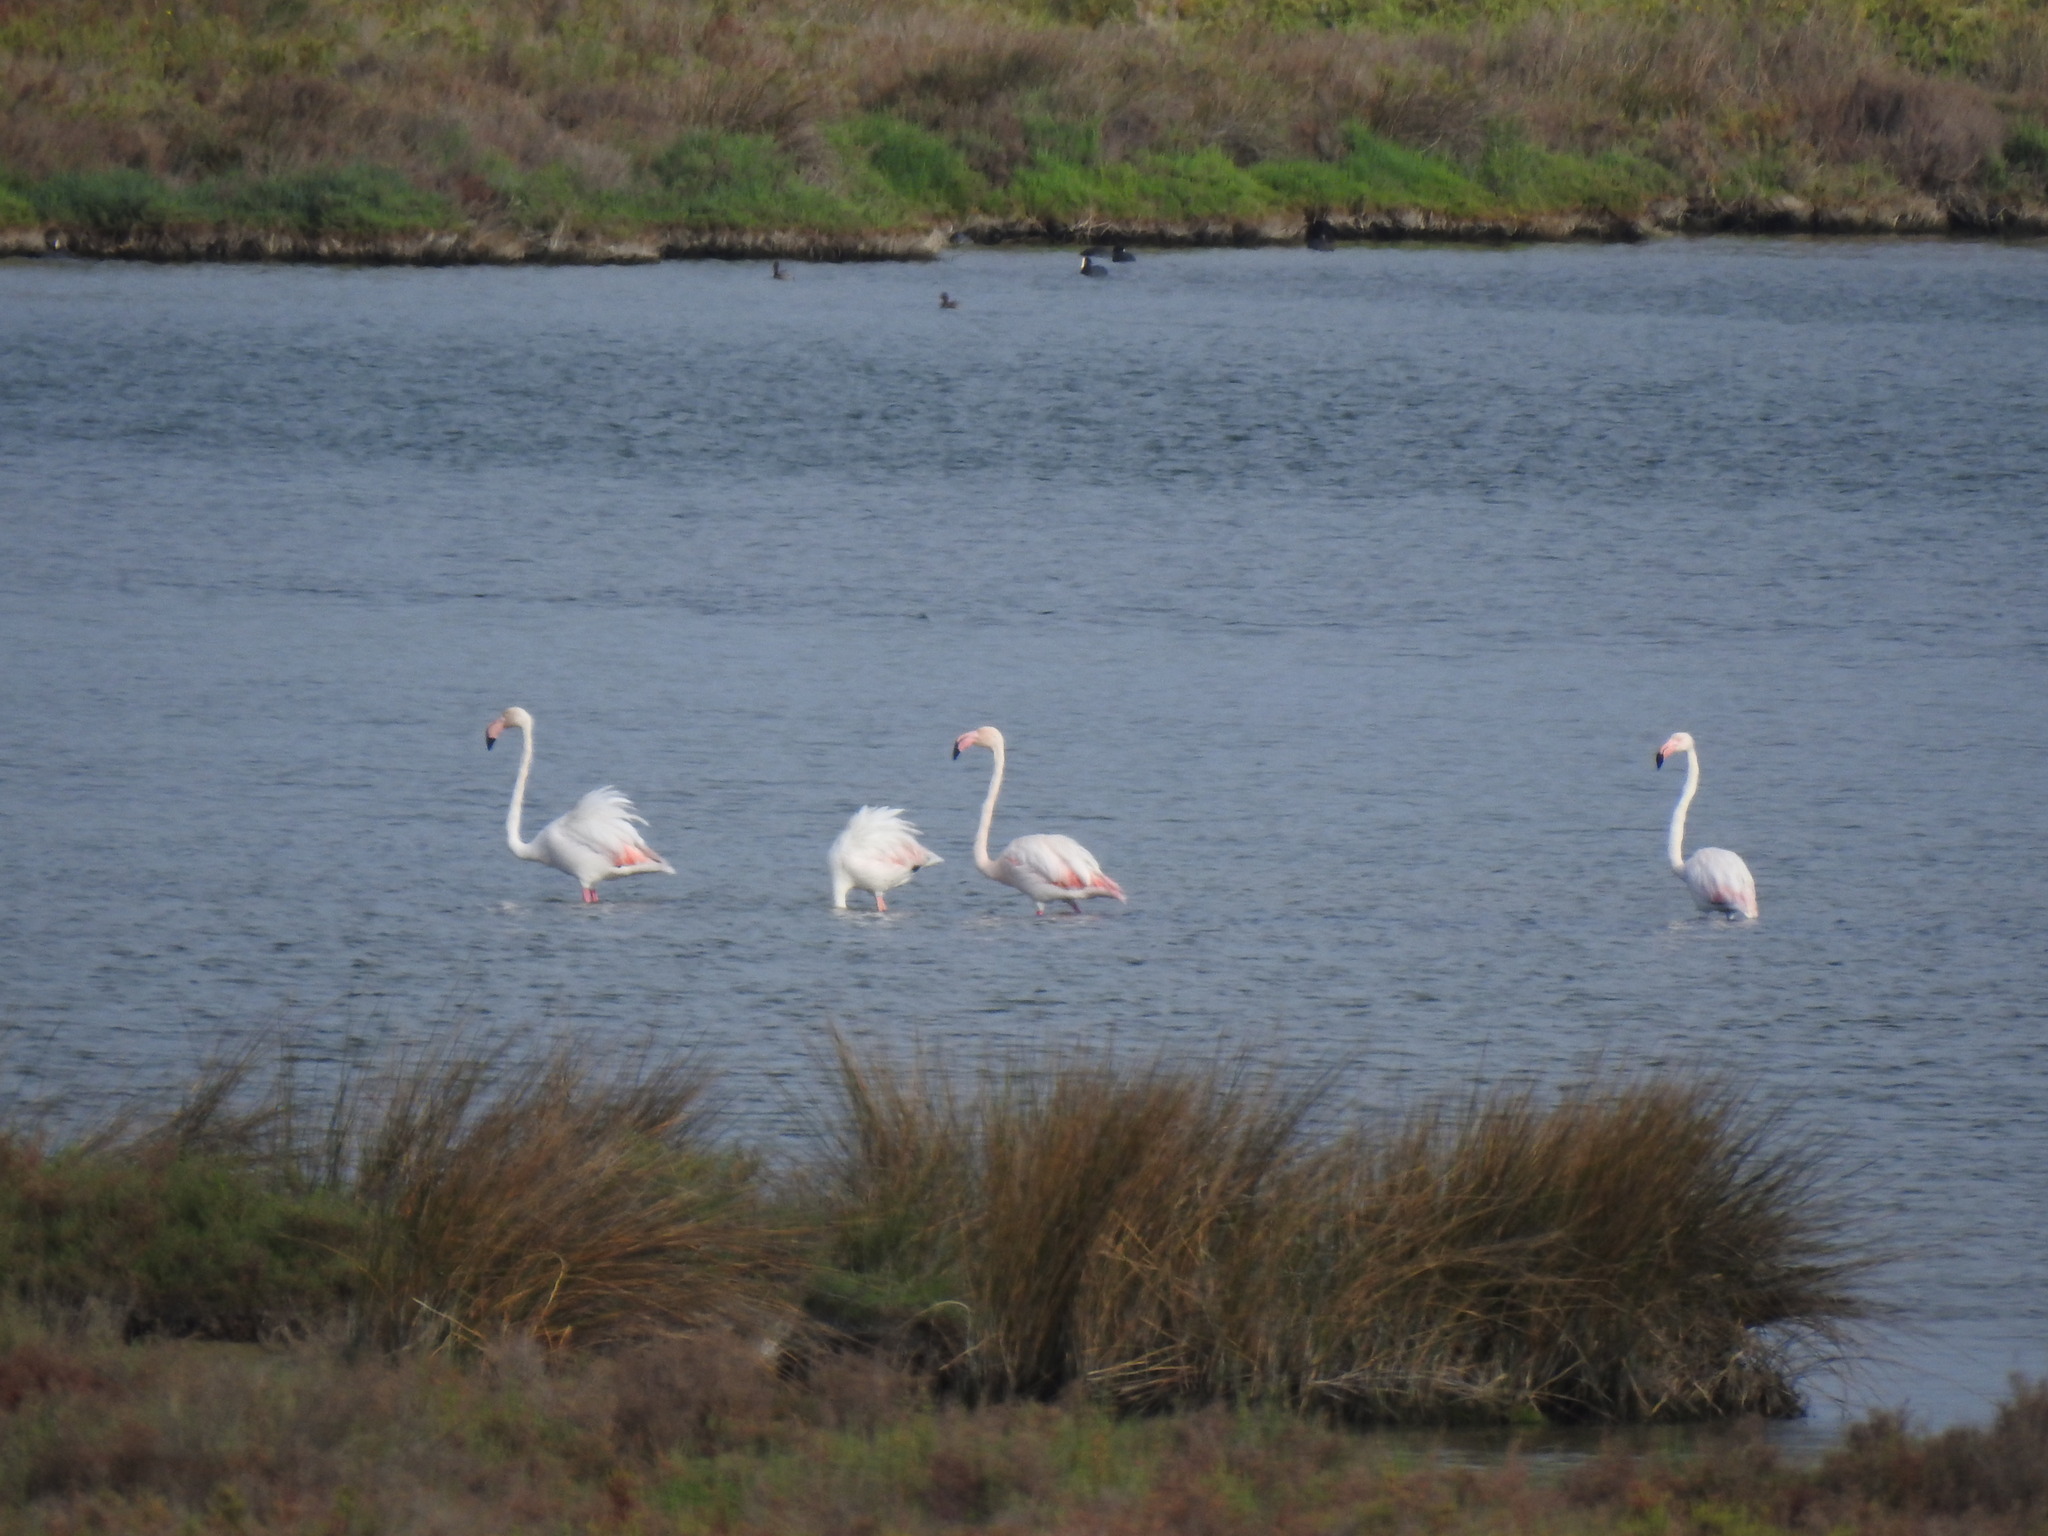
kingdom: Animalia
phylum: Chordata
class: Aves
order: Phoenicopteriformes
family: Phoenicopteridae
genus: Phoenicopterus
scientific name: Phoenicopterus roseus
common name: Greater flamingo
